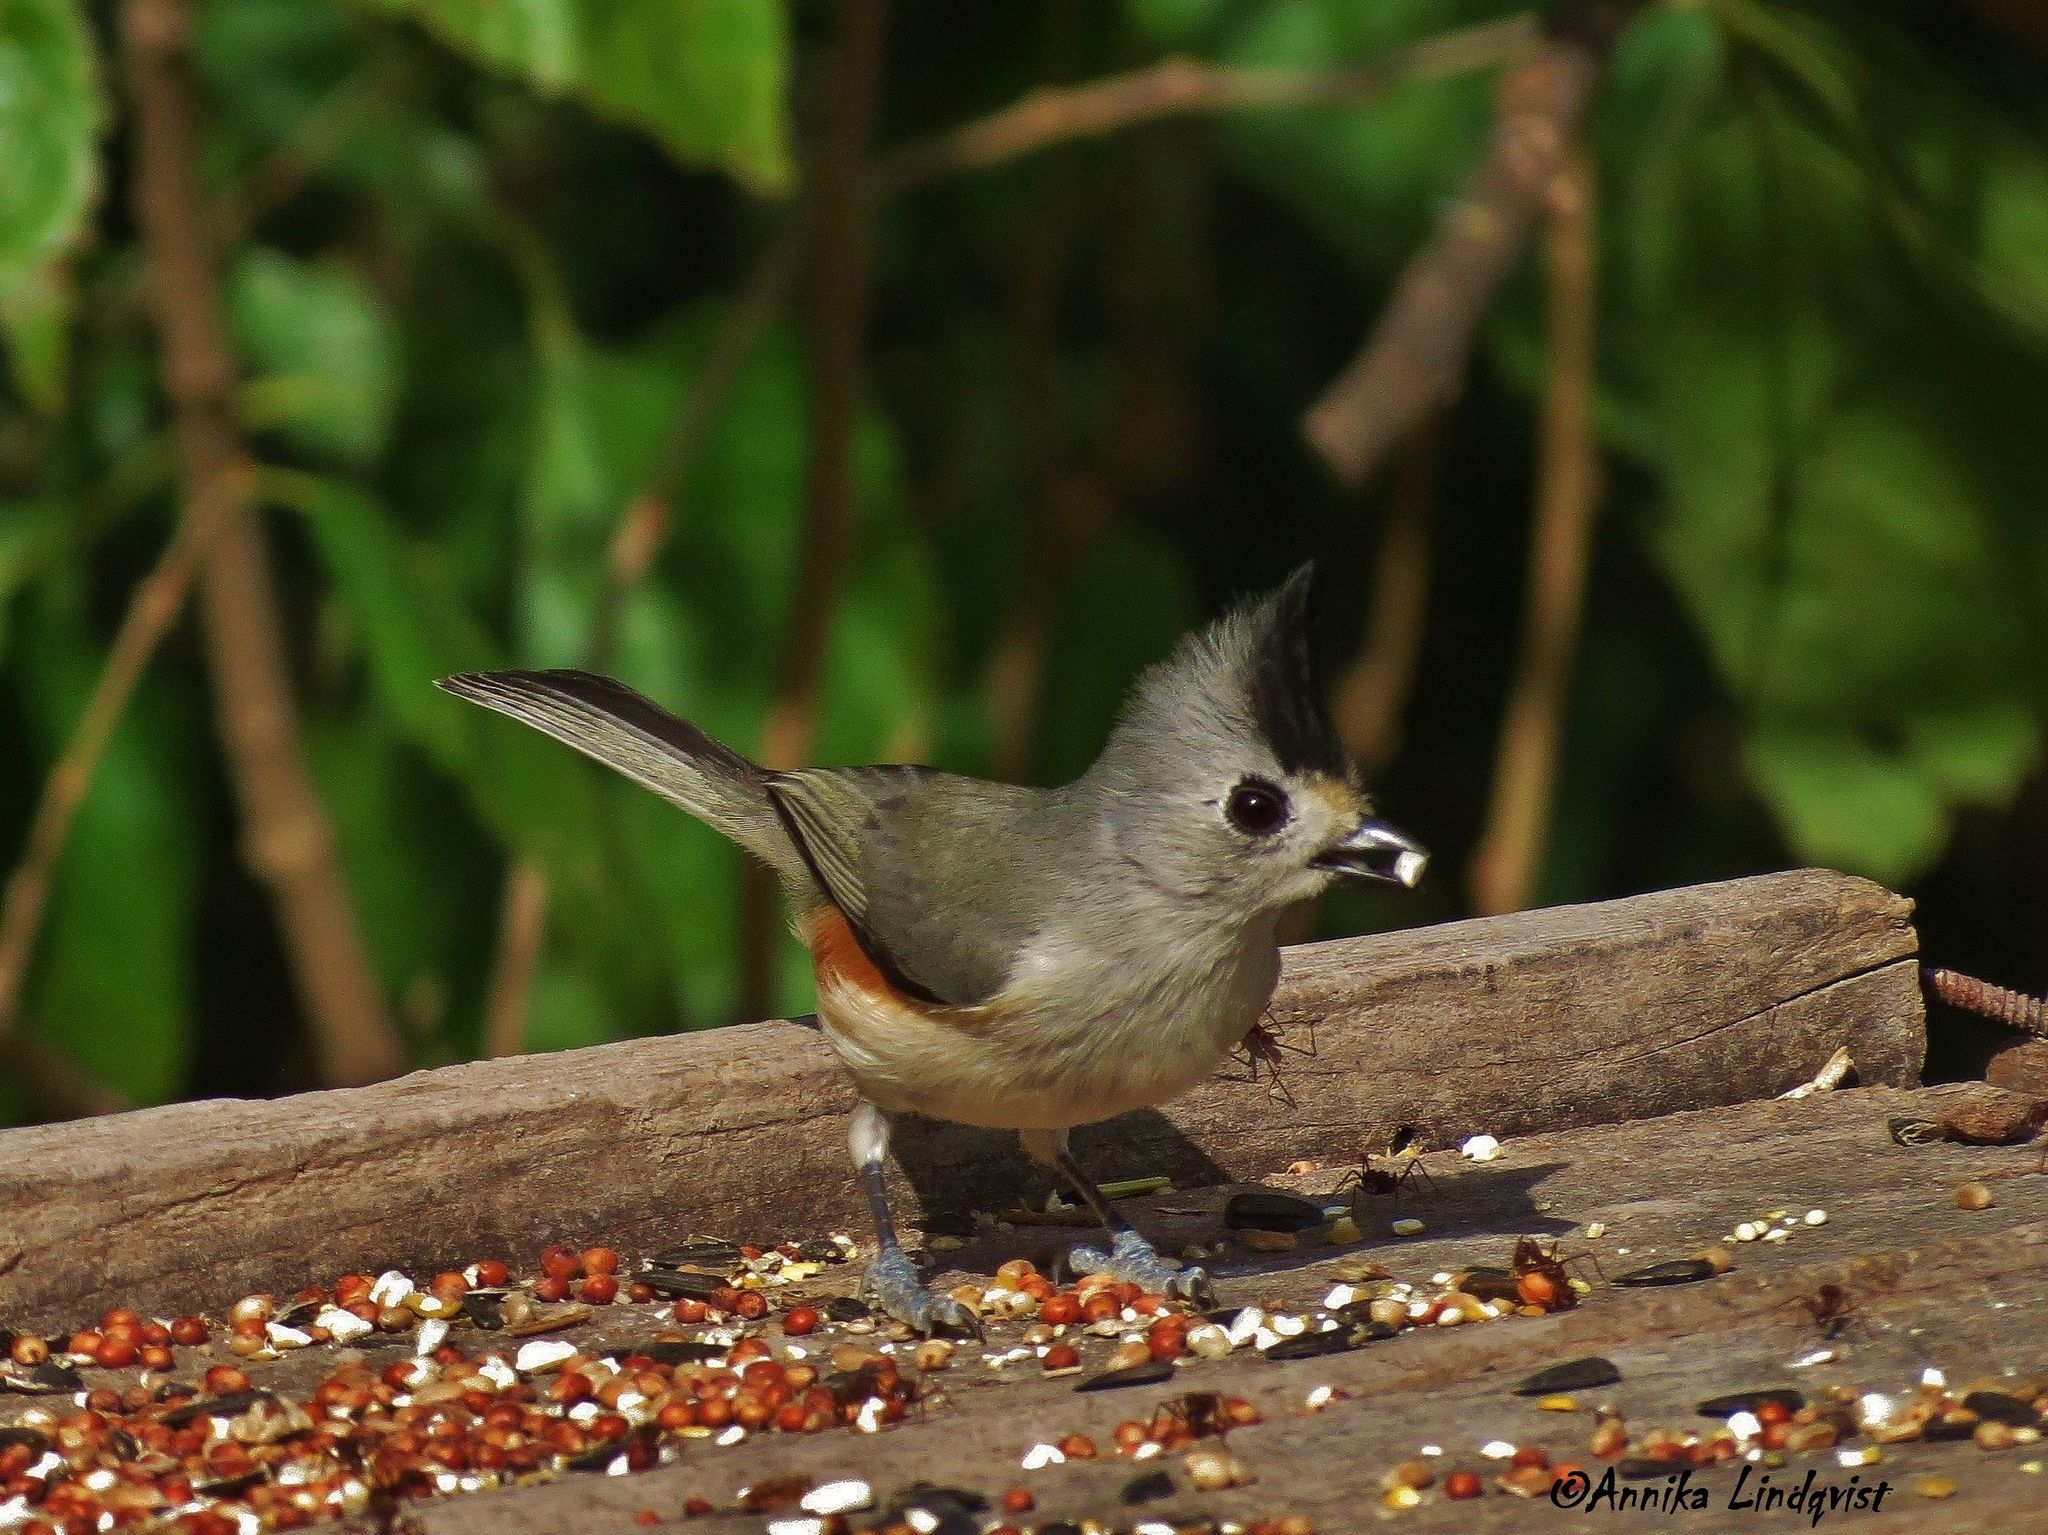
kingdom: Animalia
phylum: Chordata
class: Aves
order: Passeriformes
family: Paridae
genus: Baeolophus
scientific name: Baeolophus atricristatus
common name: Black-crested titmouse
